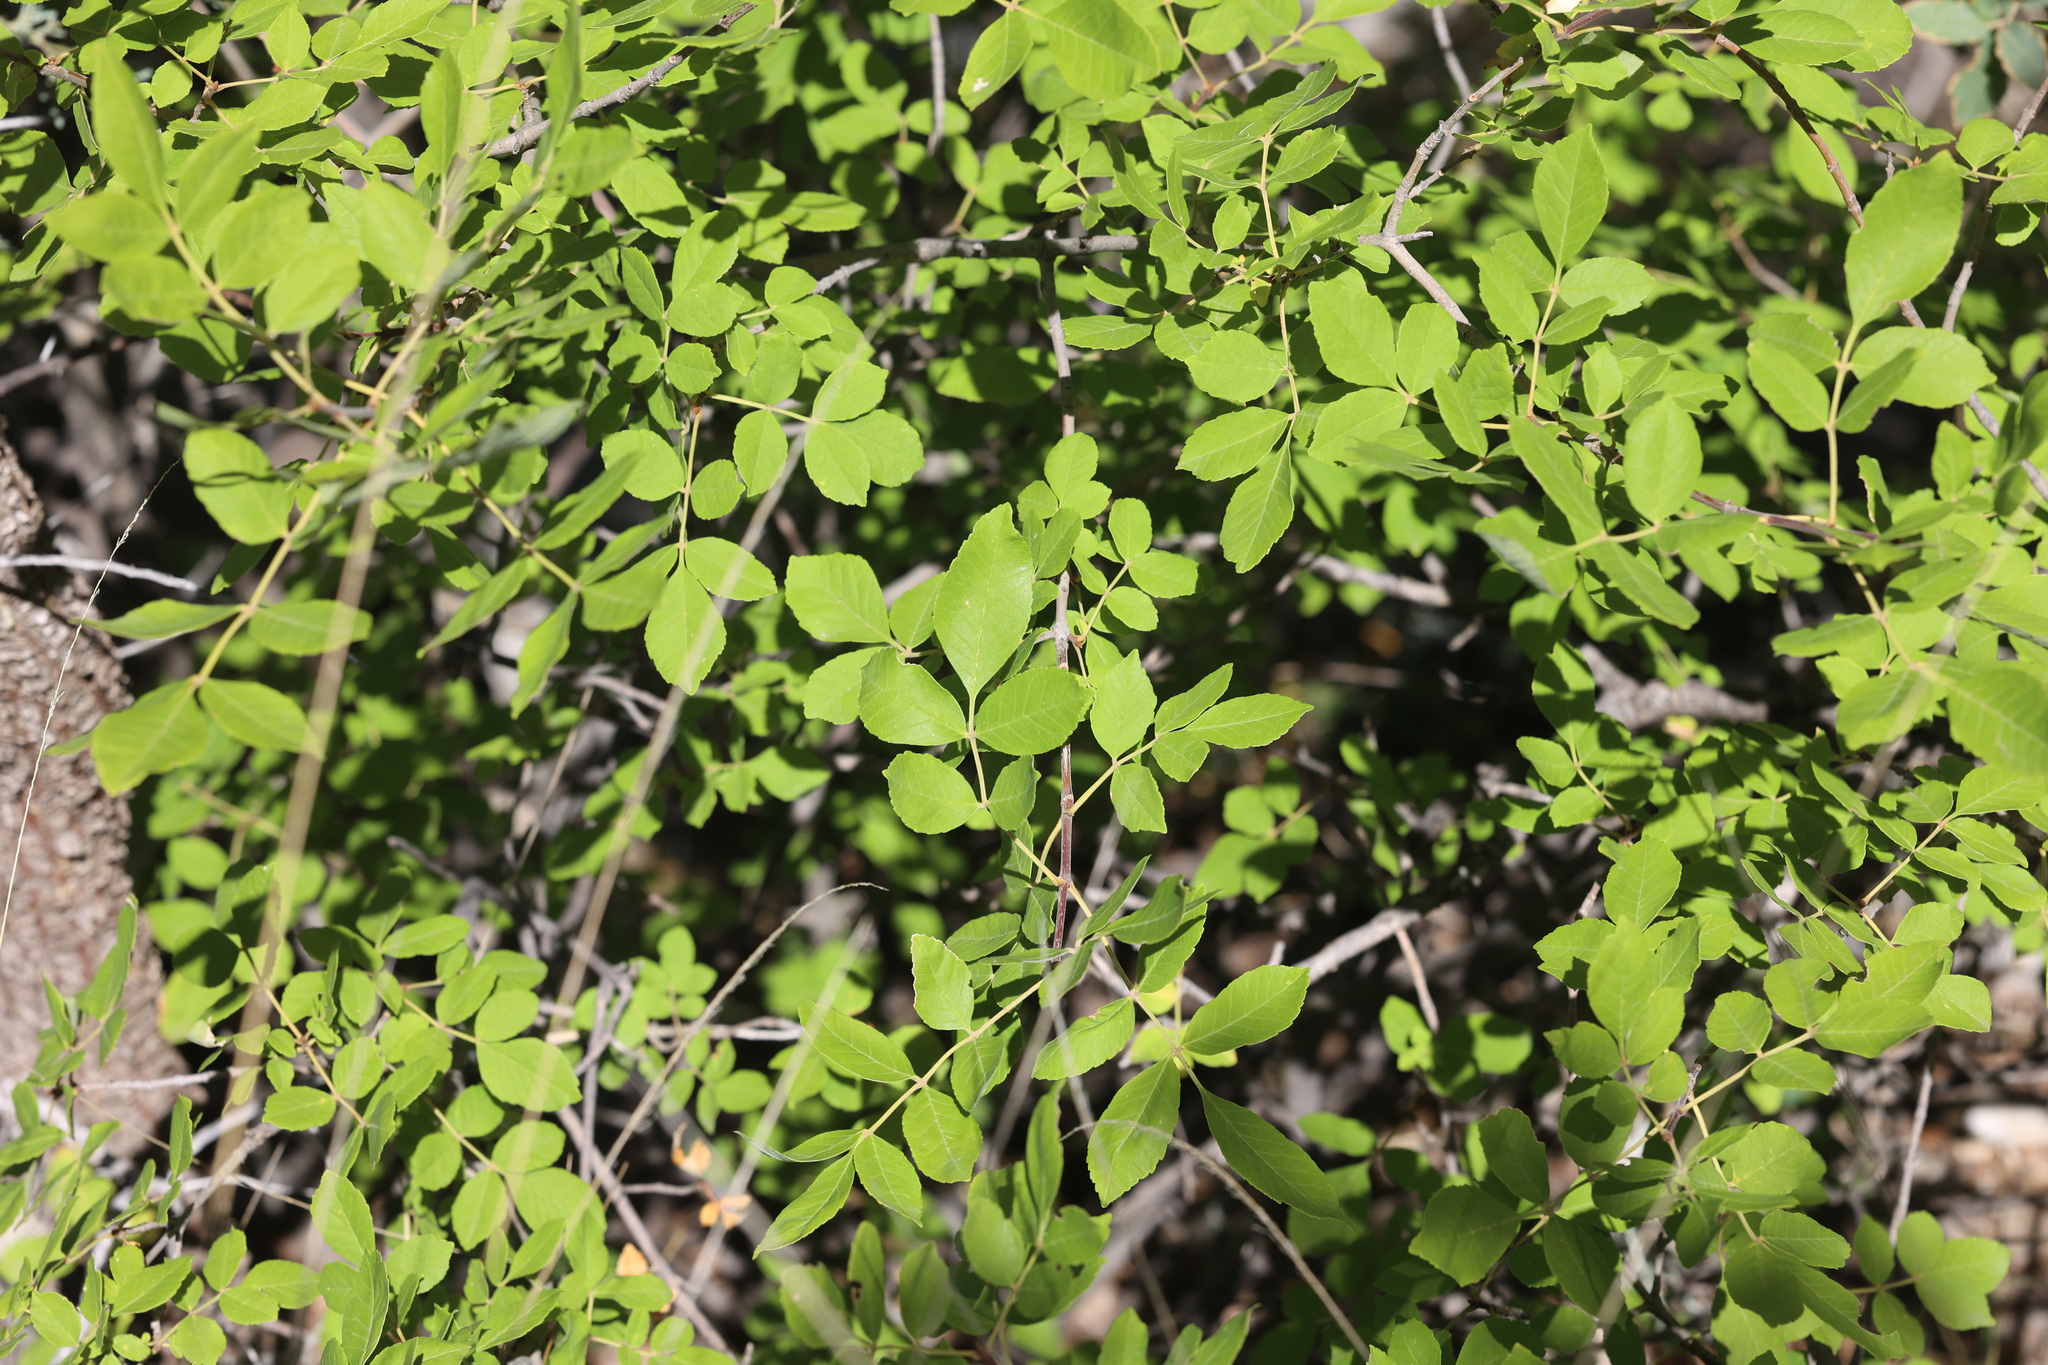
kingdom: Plantae
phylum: Tracheophyta
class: Magnoliopsida
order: Lamiales
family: Oleaceae
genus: Fraxinus
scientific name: Fraxinus velutina
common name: Arizon ash
